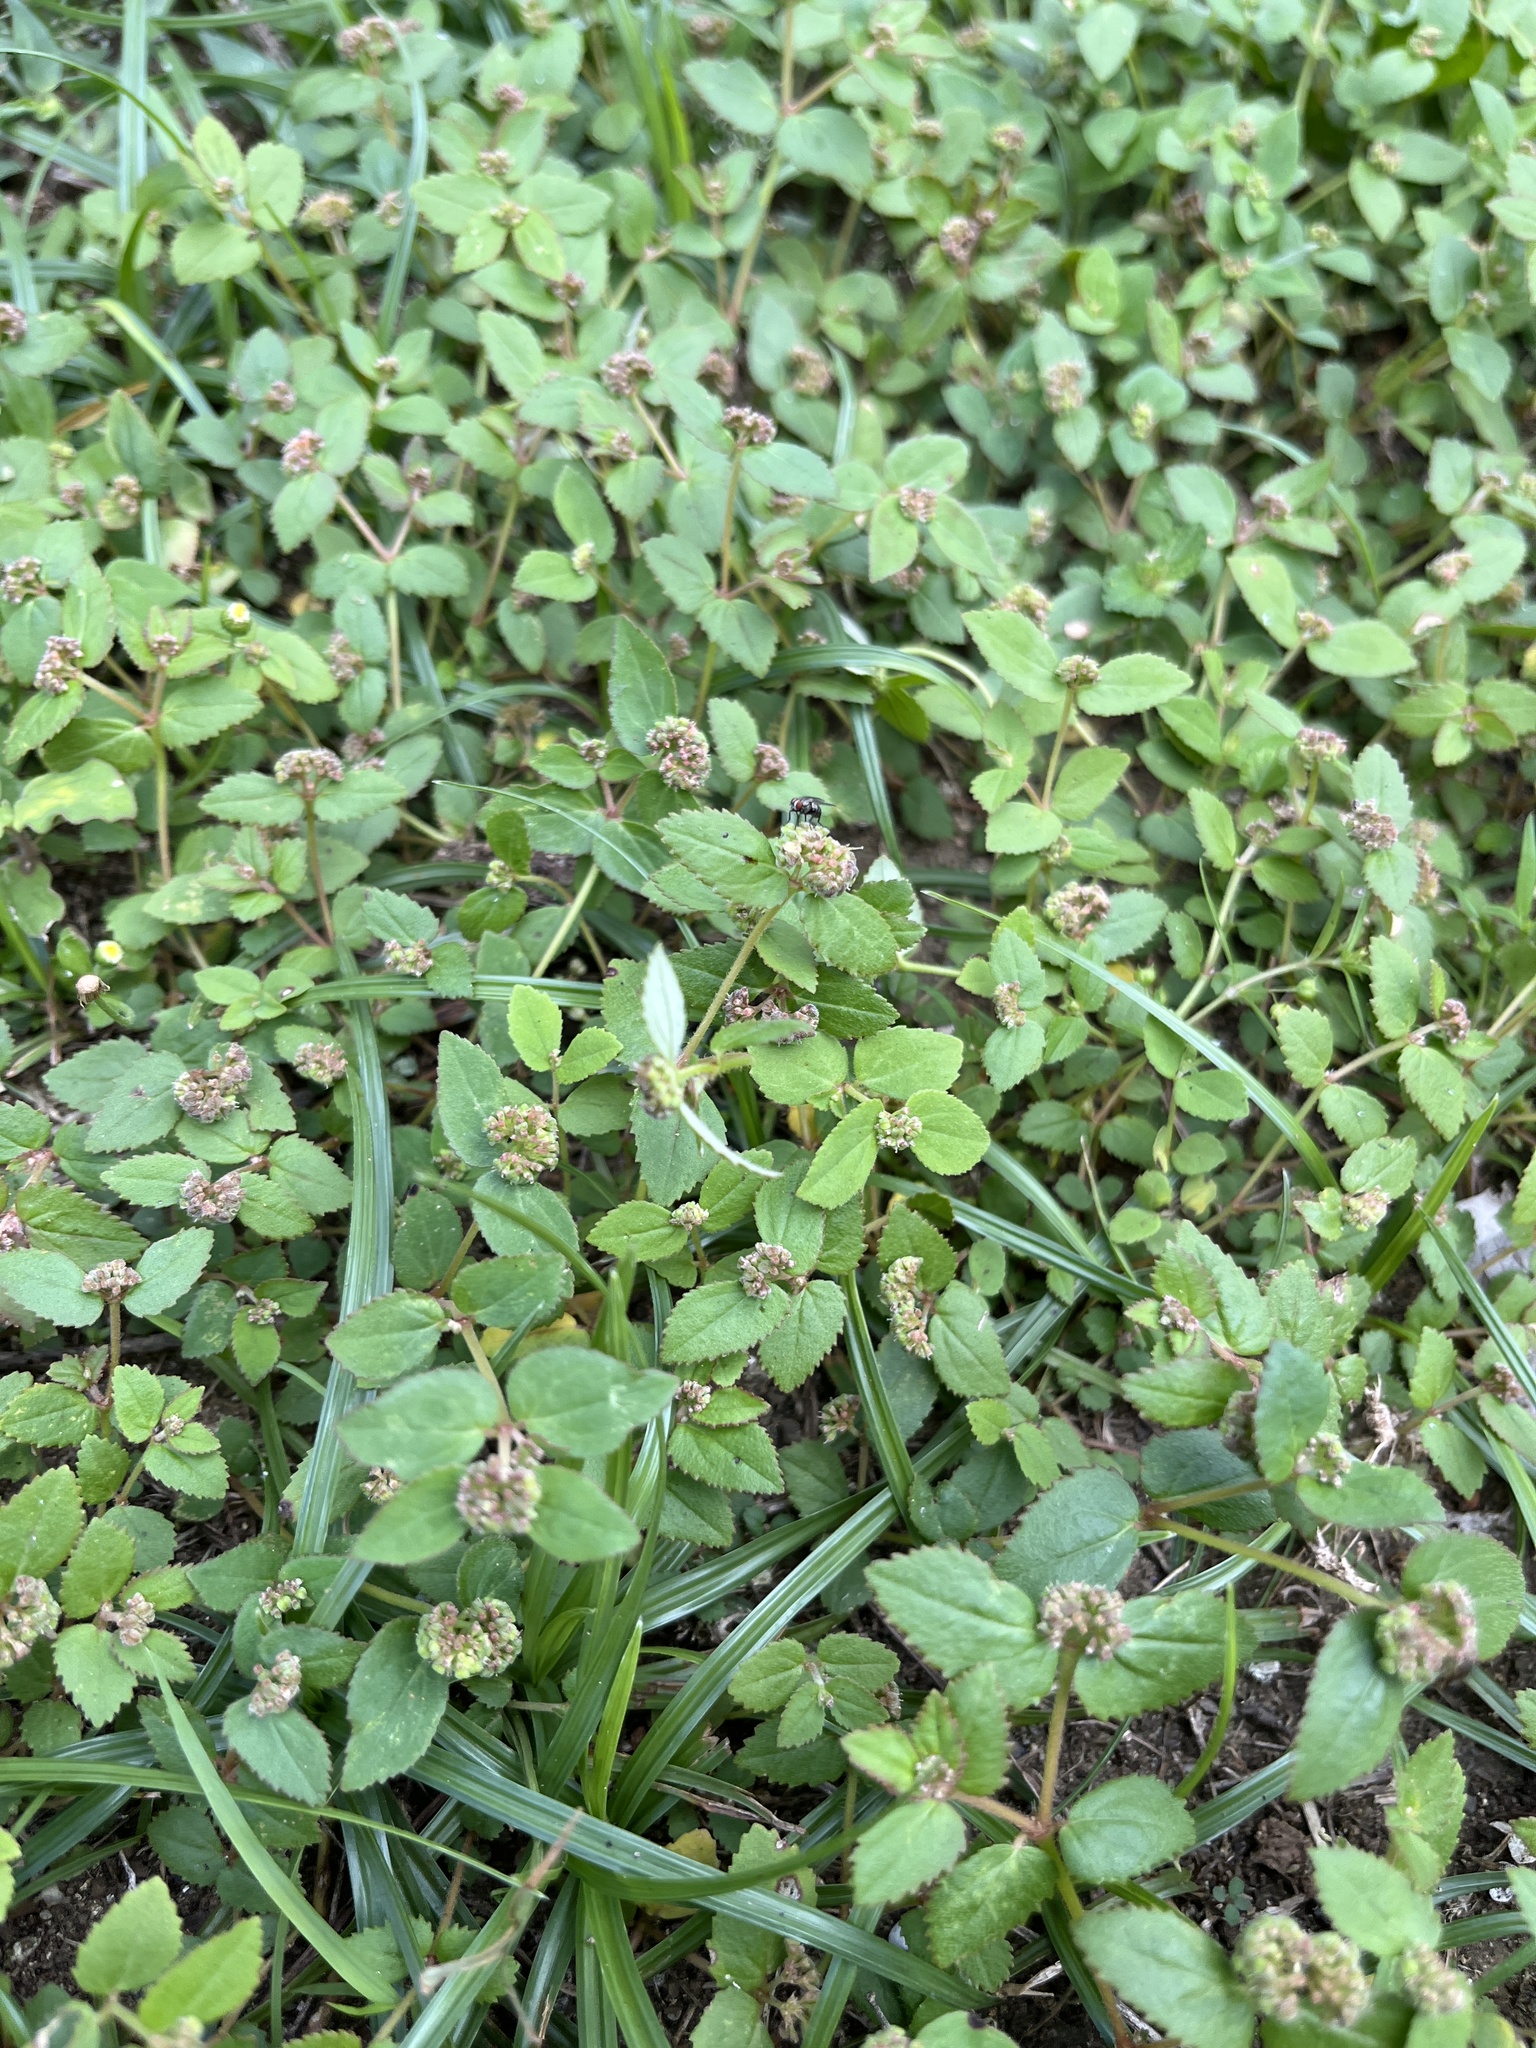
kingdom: Plantae
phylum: Tracheophyta
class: Magnoliopsida
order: Malpighiales
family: Euphorbiaceae
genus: Euphorbia
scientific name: Euphorbia ophthalmica
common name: Florida hammock sandmat
